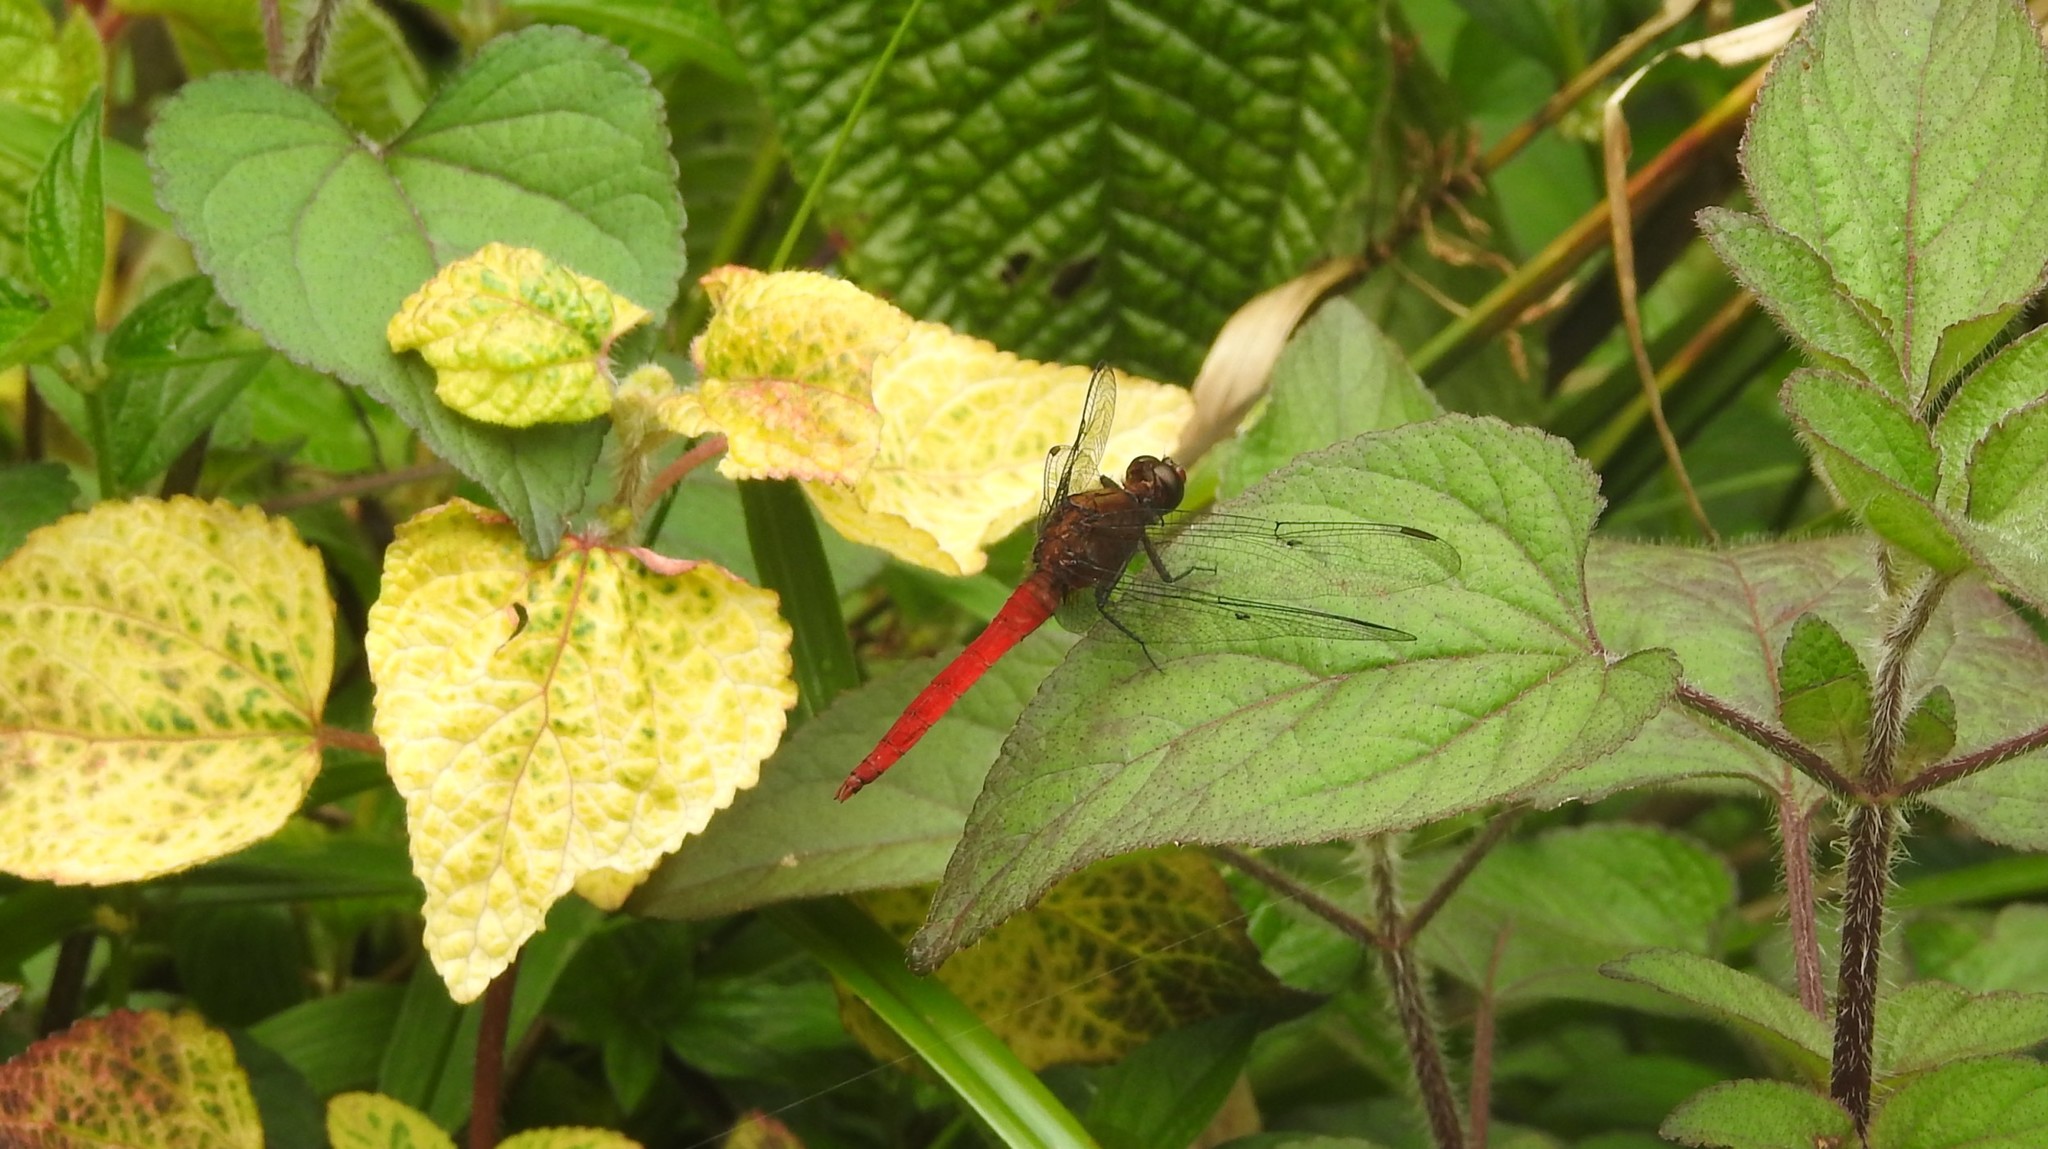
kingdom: Animalia
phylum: Arthropoda
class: Insecta
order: Odonata
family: Libellulidae
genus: Orthetrum
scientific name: Orthetrum chrysis
